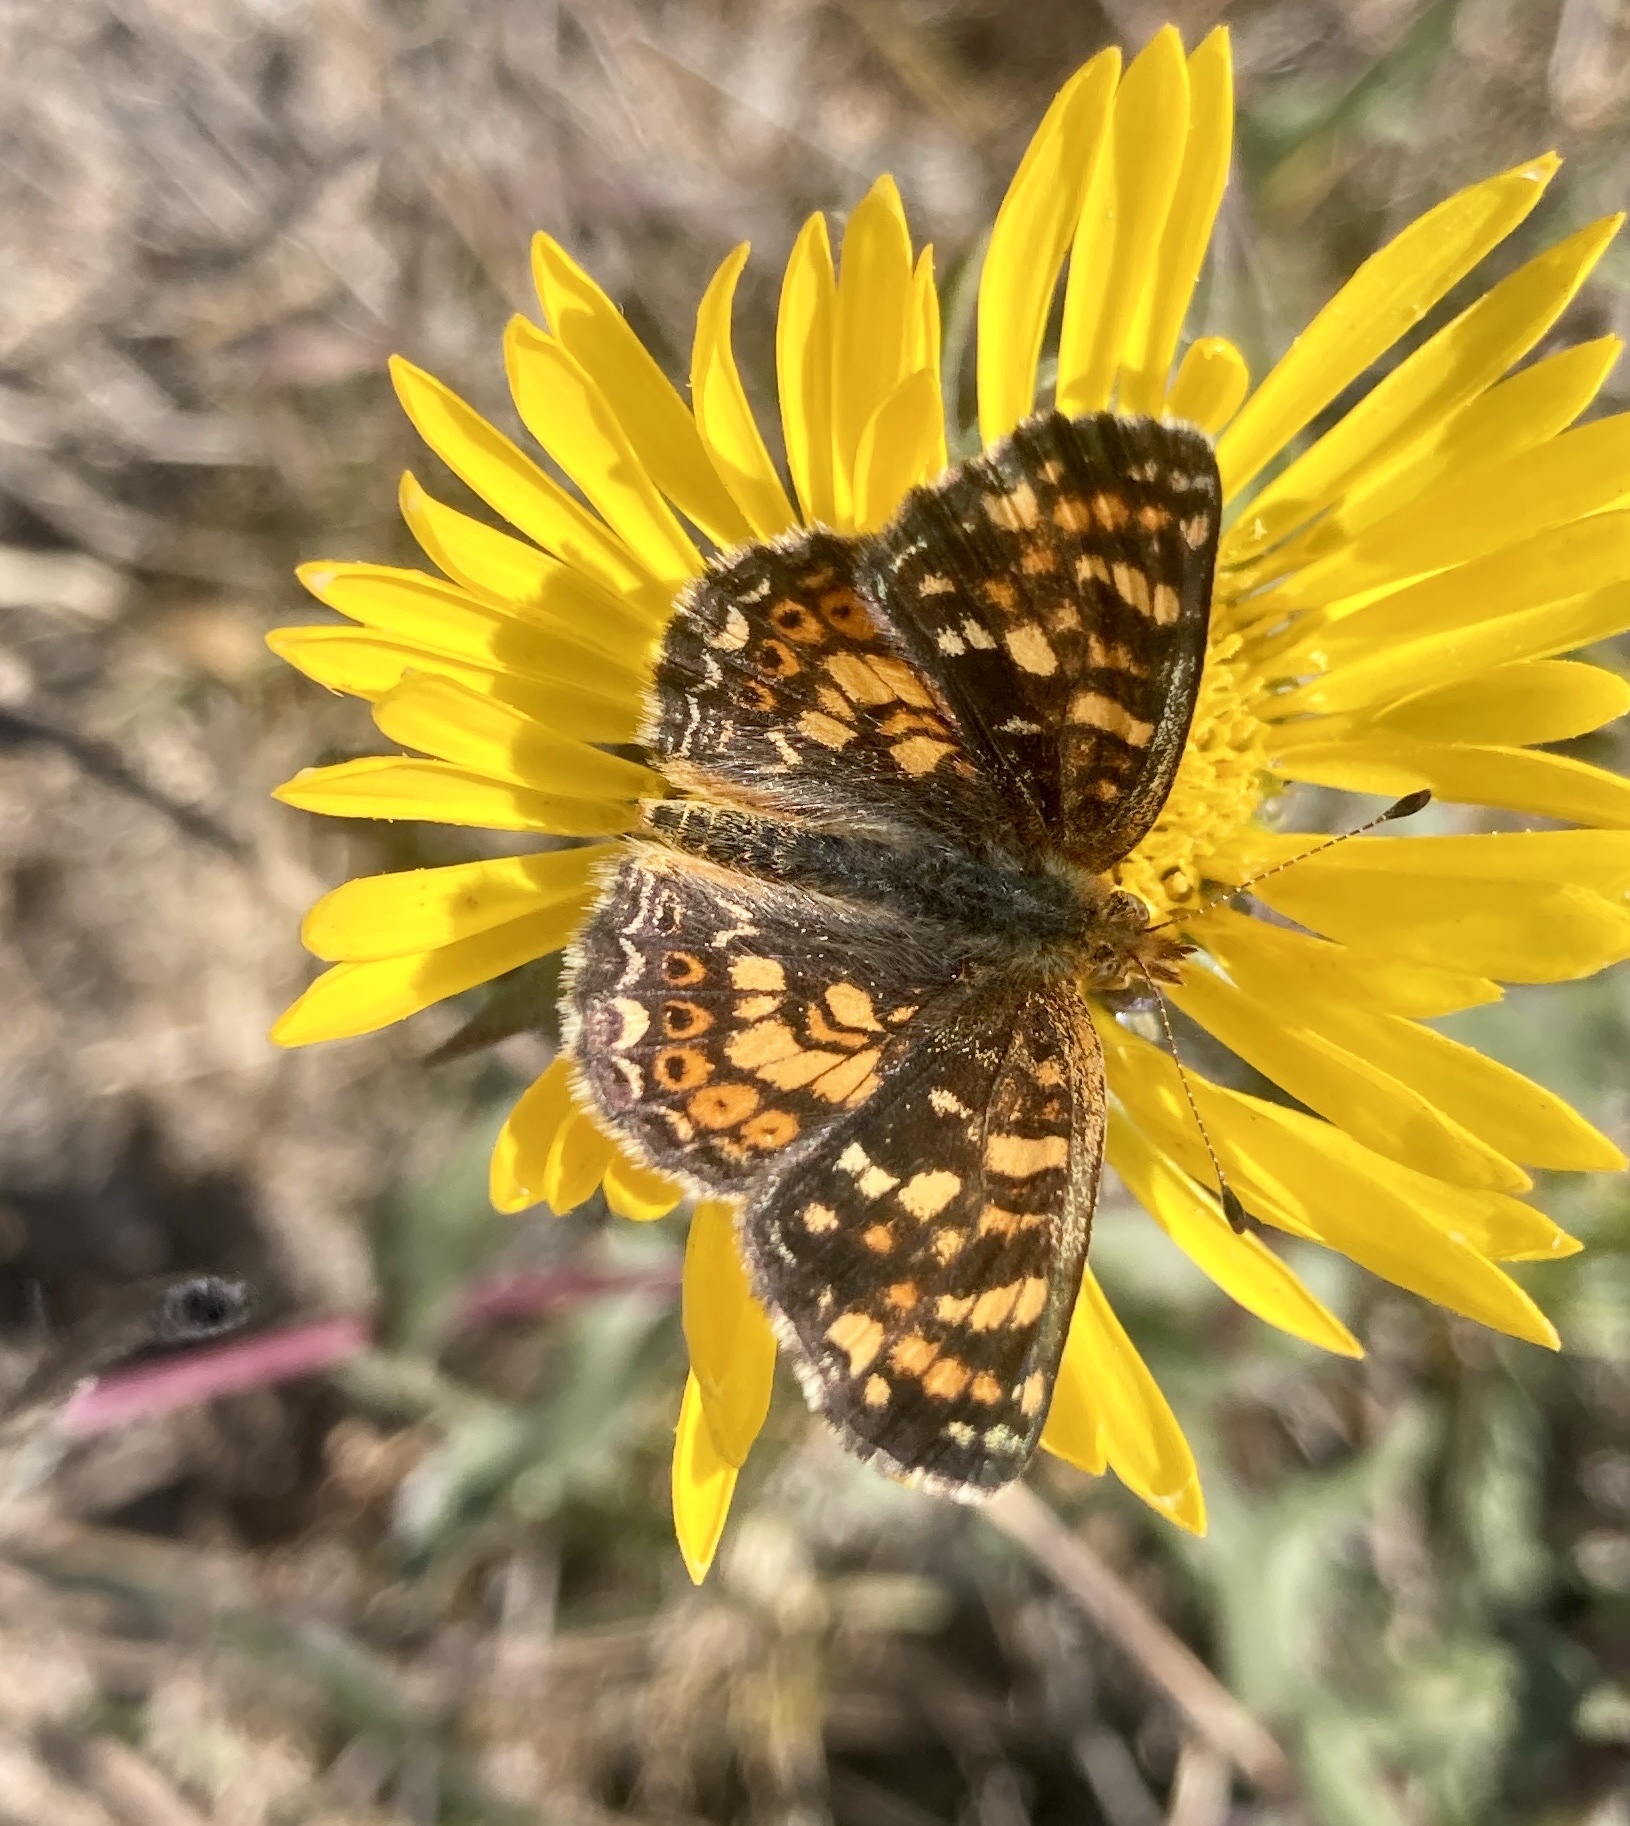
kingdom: Animalia
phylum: Arthropoda
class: Insecta
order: Lepidoptera
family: Nymphalidae
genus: Phyciodes
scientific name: Phyciodes tharos
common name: Pearl crescent
